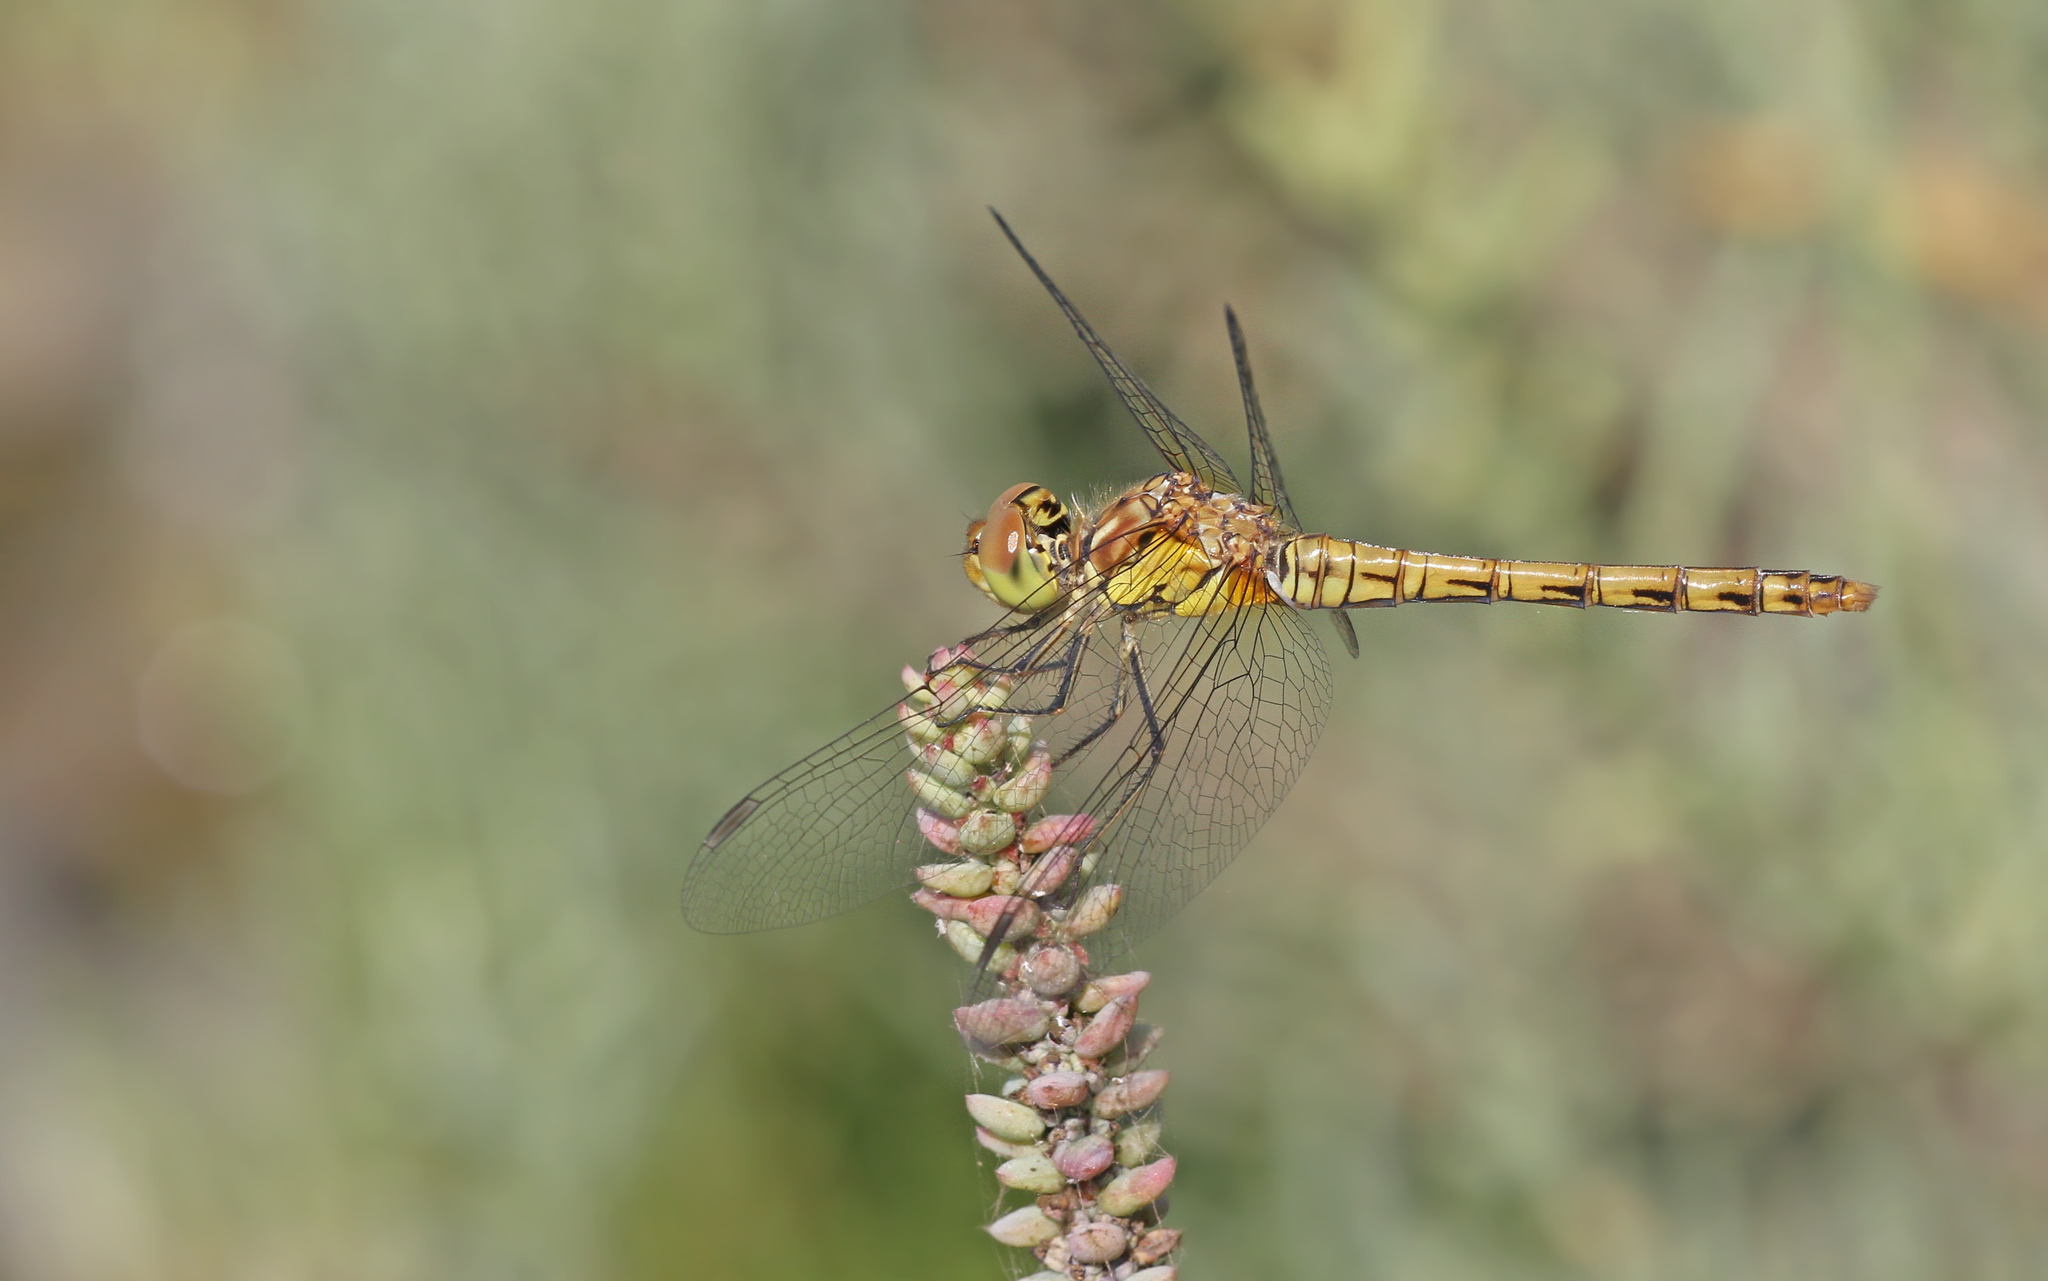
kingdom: Animalia
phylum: Arthropoda
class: Insecta
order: Odonata
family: Libellulidae
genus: Sympetrum
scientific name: Sympetrum striolatum
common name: Common darter
